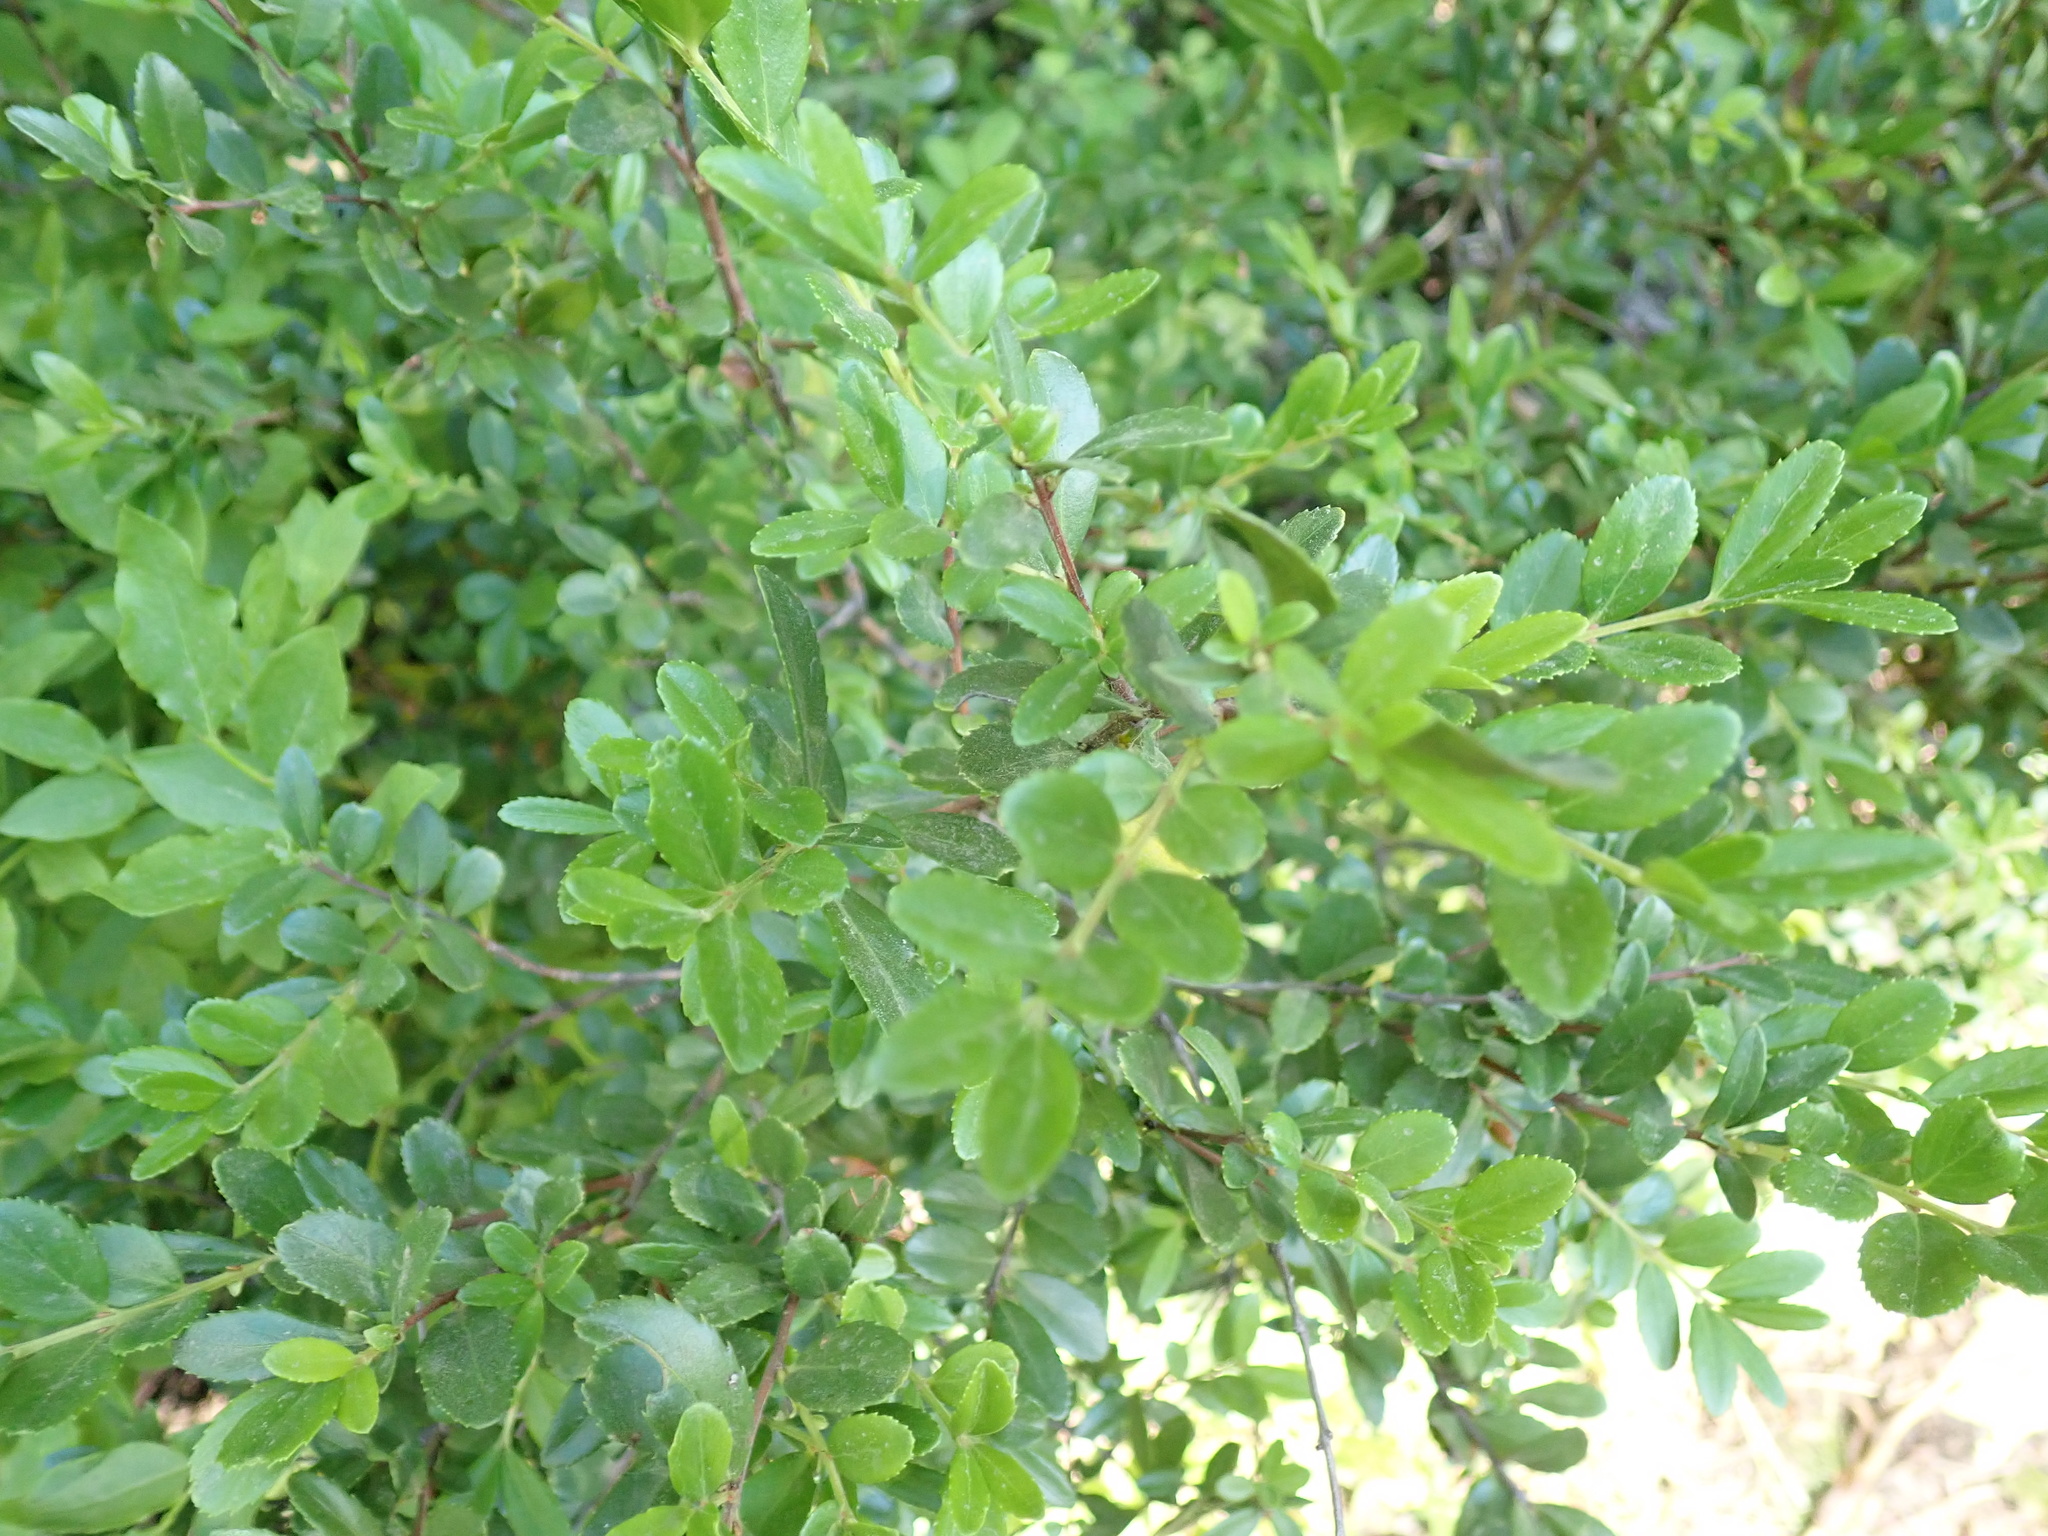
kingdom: Plantae
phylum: Tracheophyta
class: Magnoliopsida
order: Celastrales
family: Celastraceae
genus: Paxistima
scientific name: Paxistima myrsinites
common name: Mountain-lover
